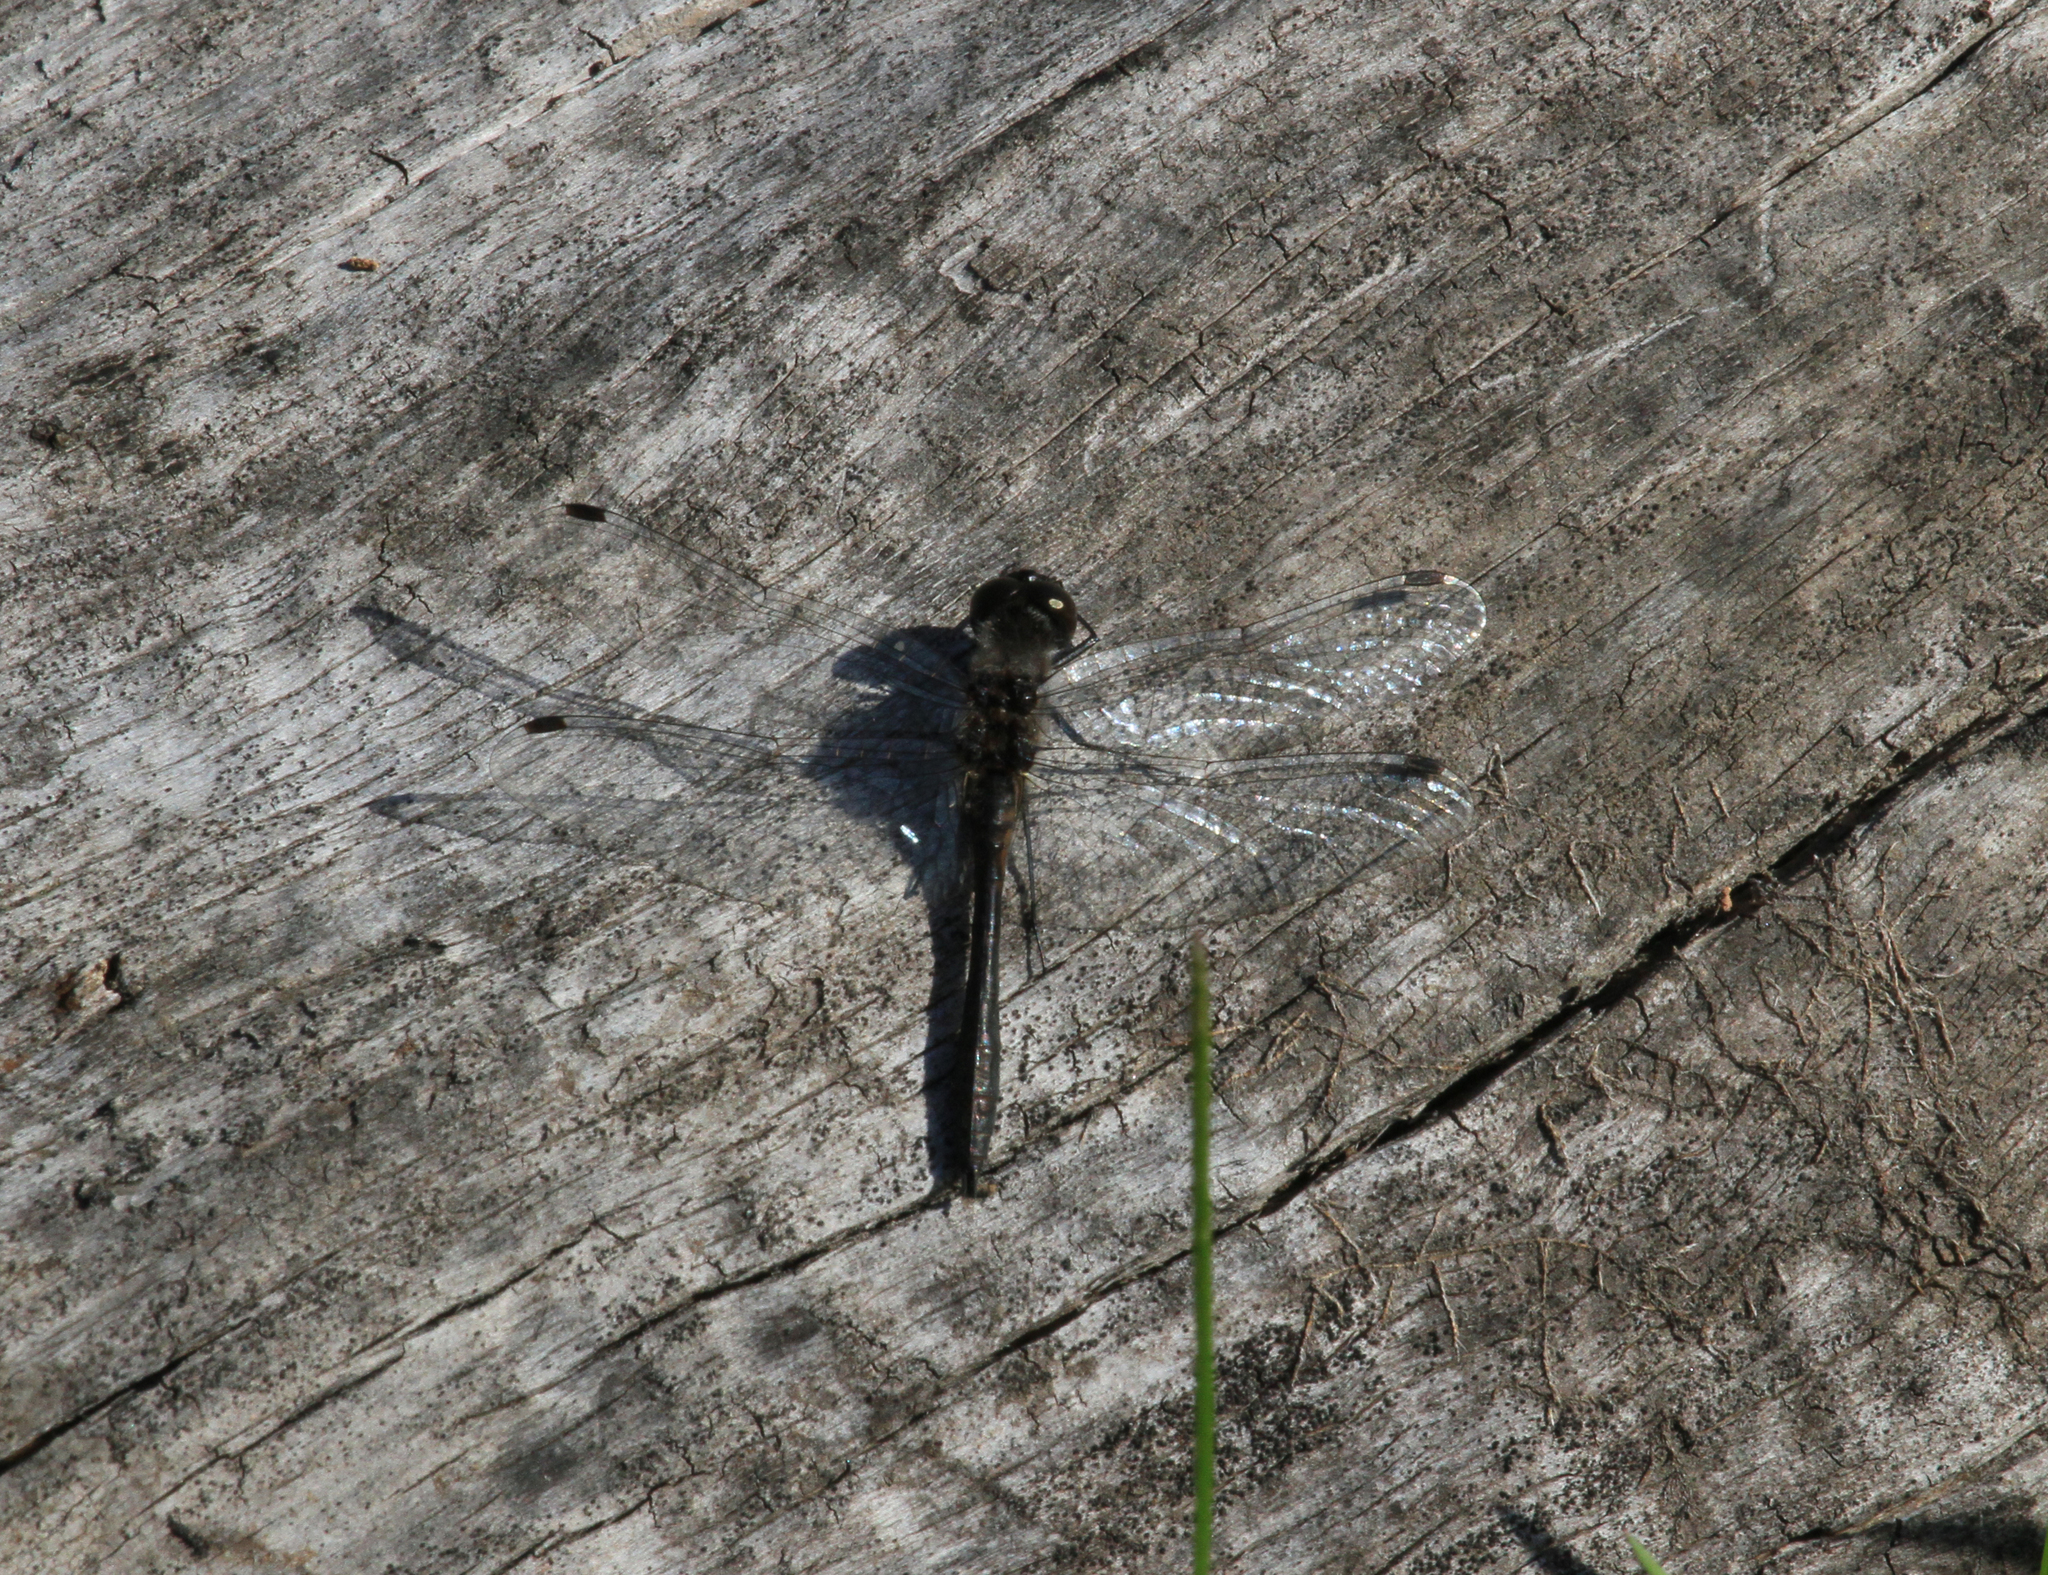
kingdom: Animalia
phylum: Arthropoda
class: Insecta
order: Odonata
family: Libellulidae
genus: Sympetrum
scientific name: Sympetrum danae
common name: Black darter
